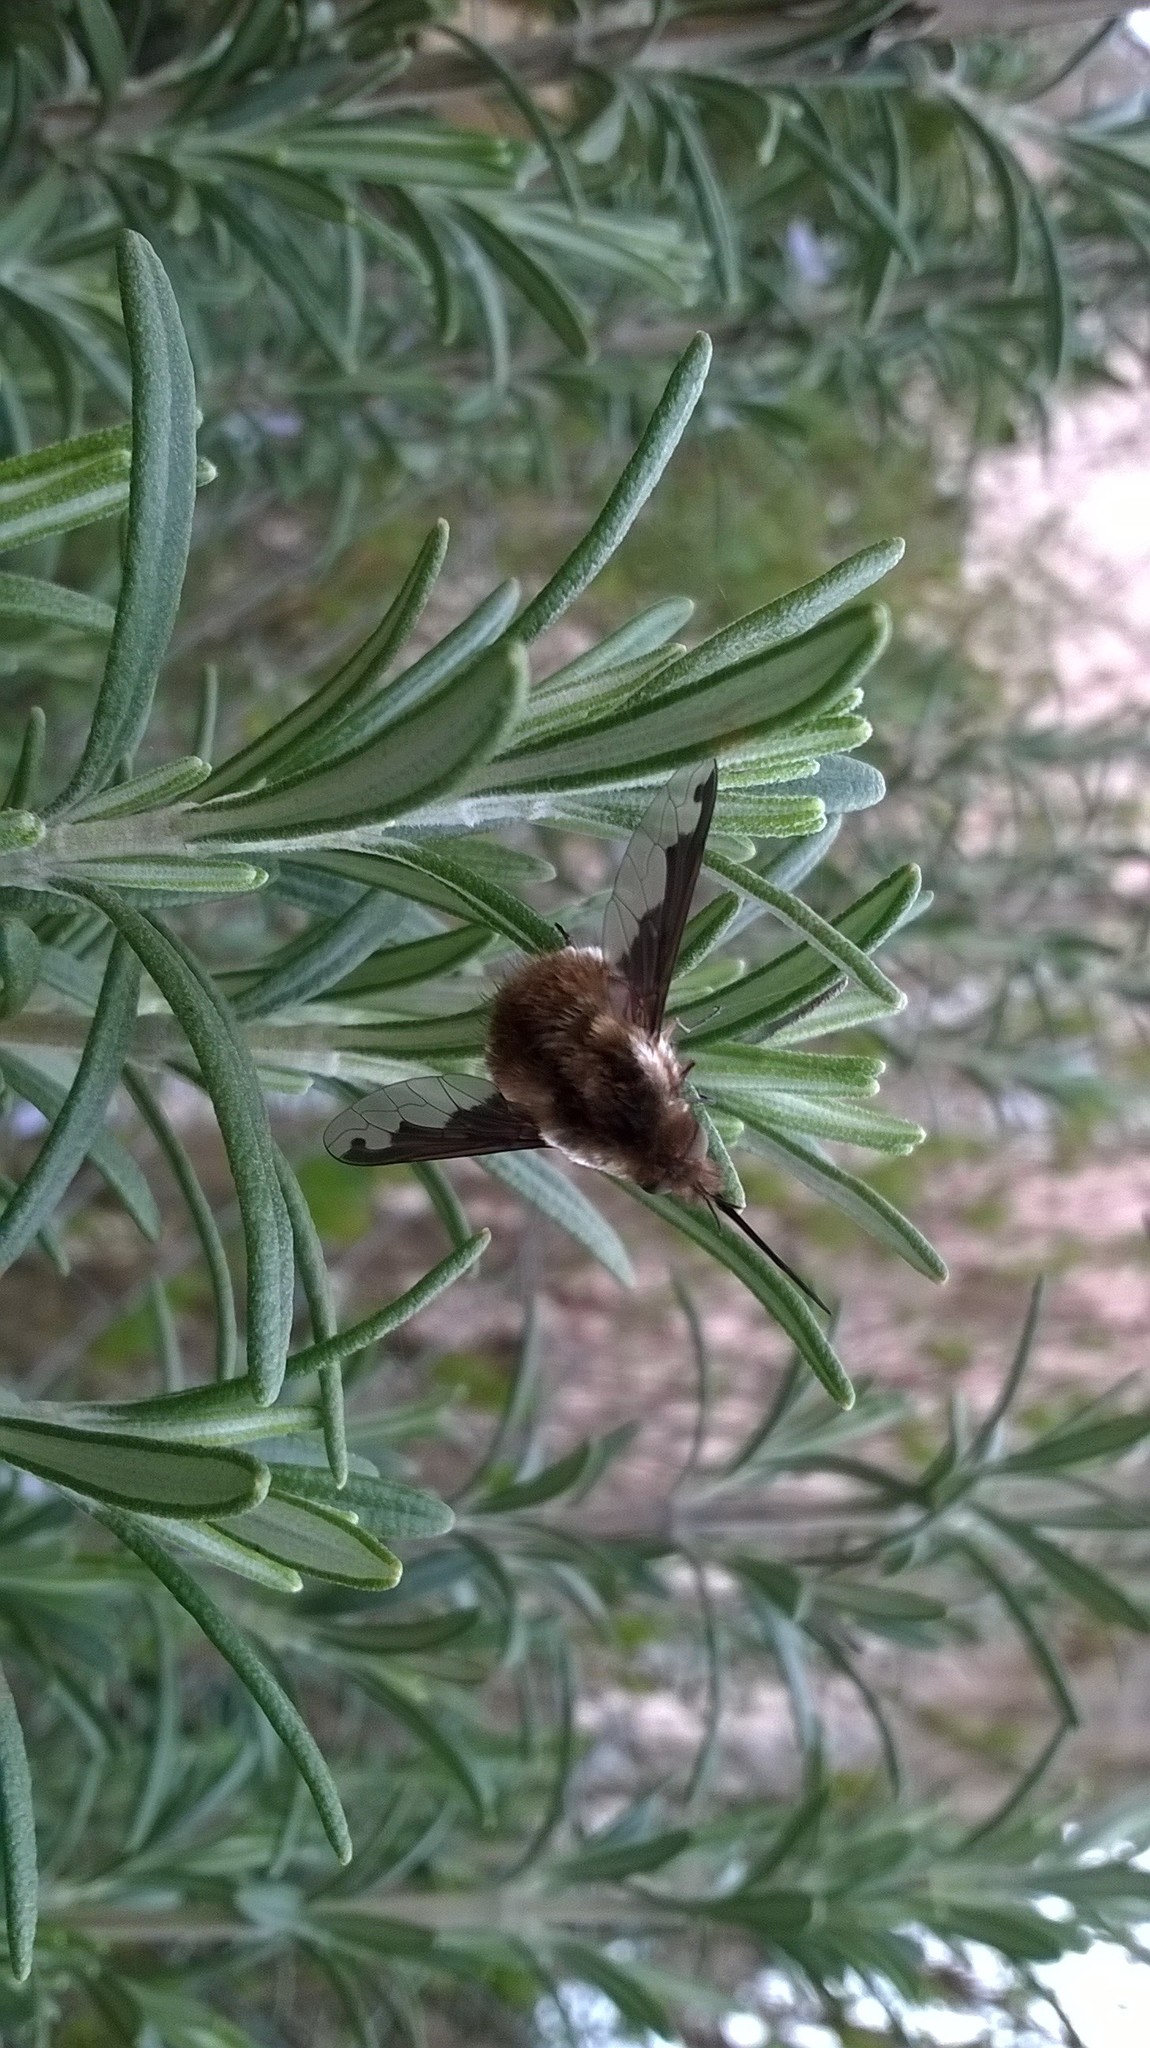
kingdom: Animalia
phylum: Arthropoda
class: Insecta
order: Diptera
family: Bombyliidae
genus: Bombylius
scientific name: Bombylius major
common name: Bee fly
